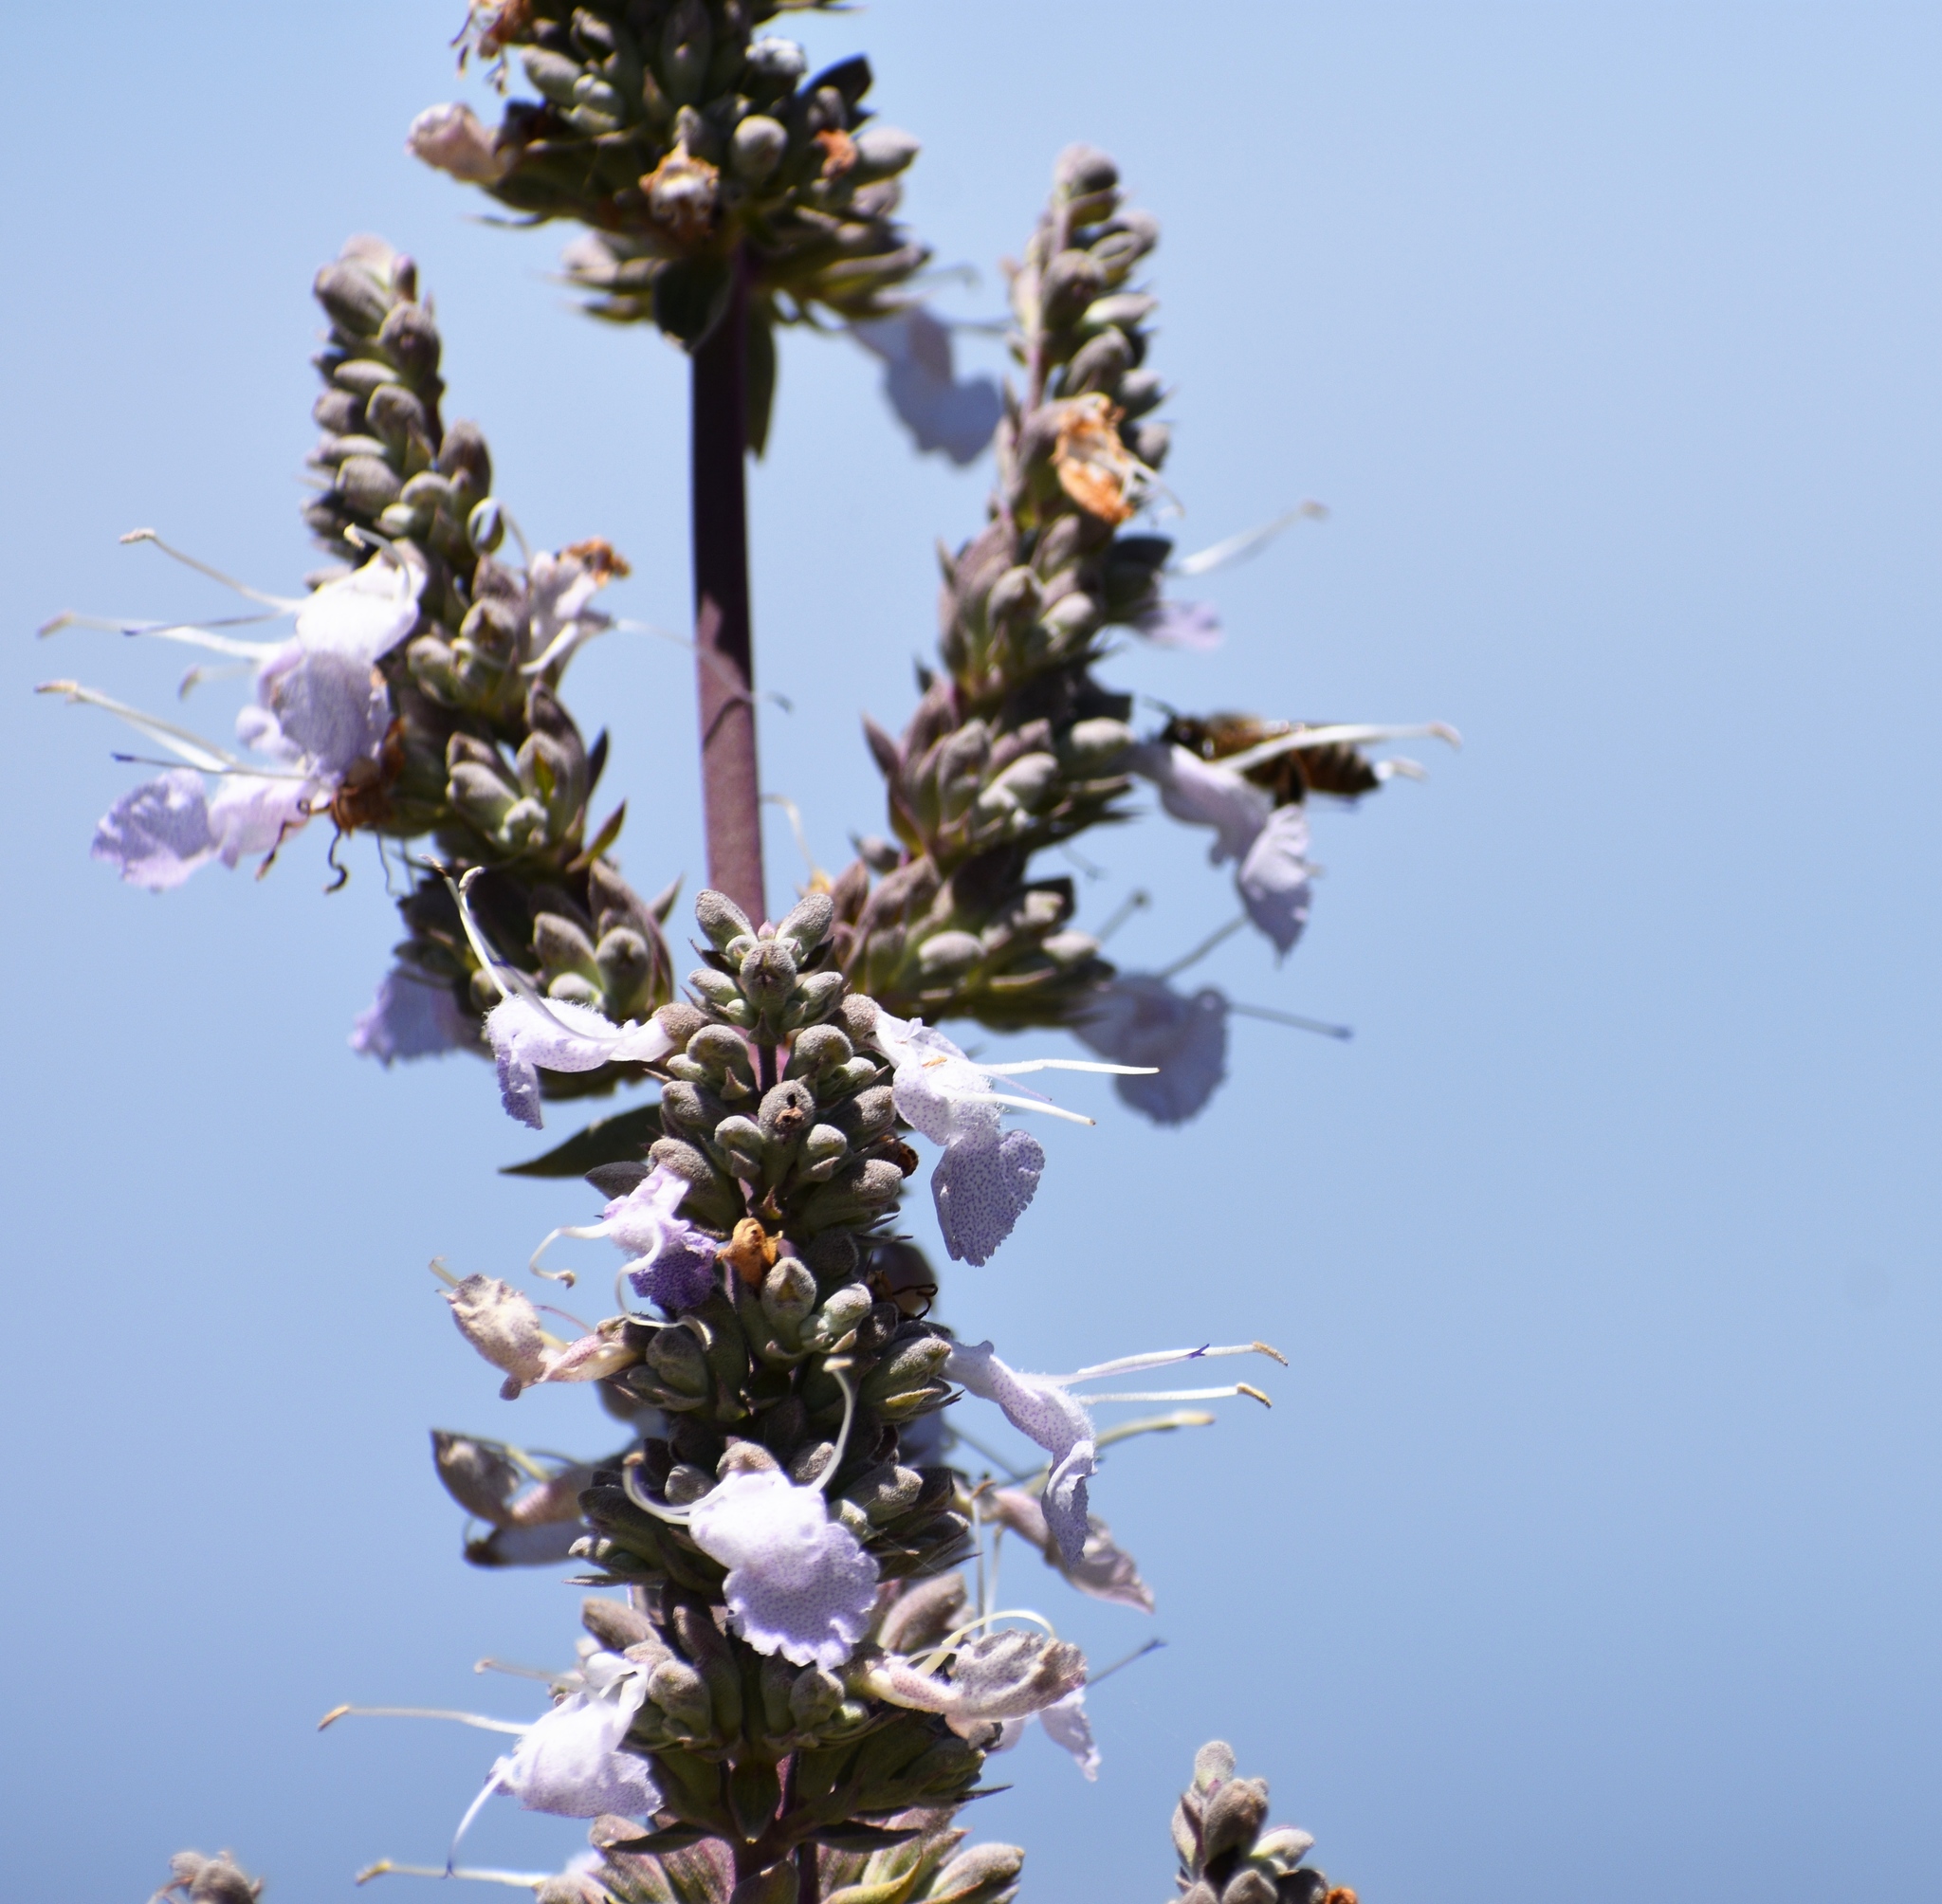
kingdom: Plantae
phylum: Tracheophyta
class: Magnoliopsida
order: Lamiales
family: Lamiaceae
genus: Salvia
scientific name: Salvia apiana
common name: White sage
